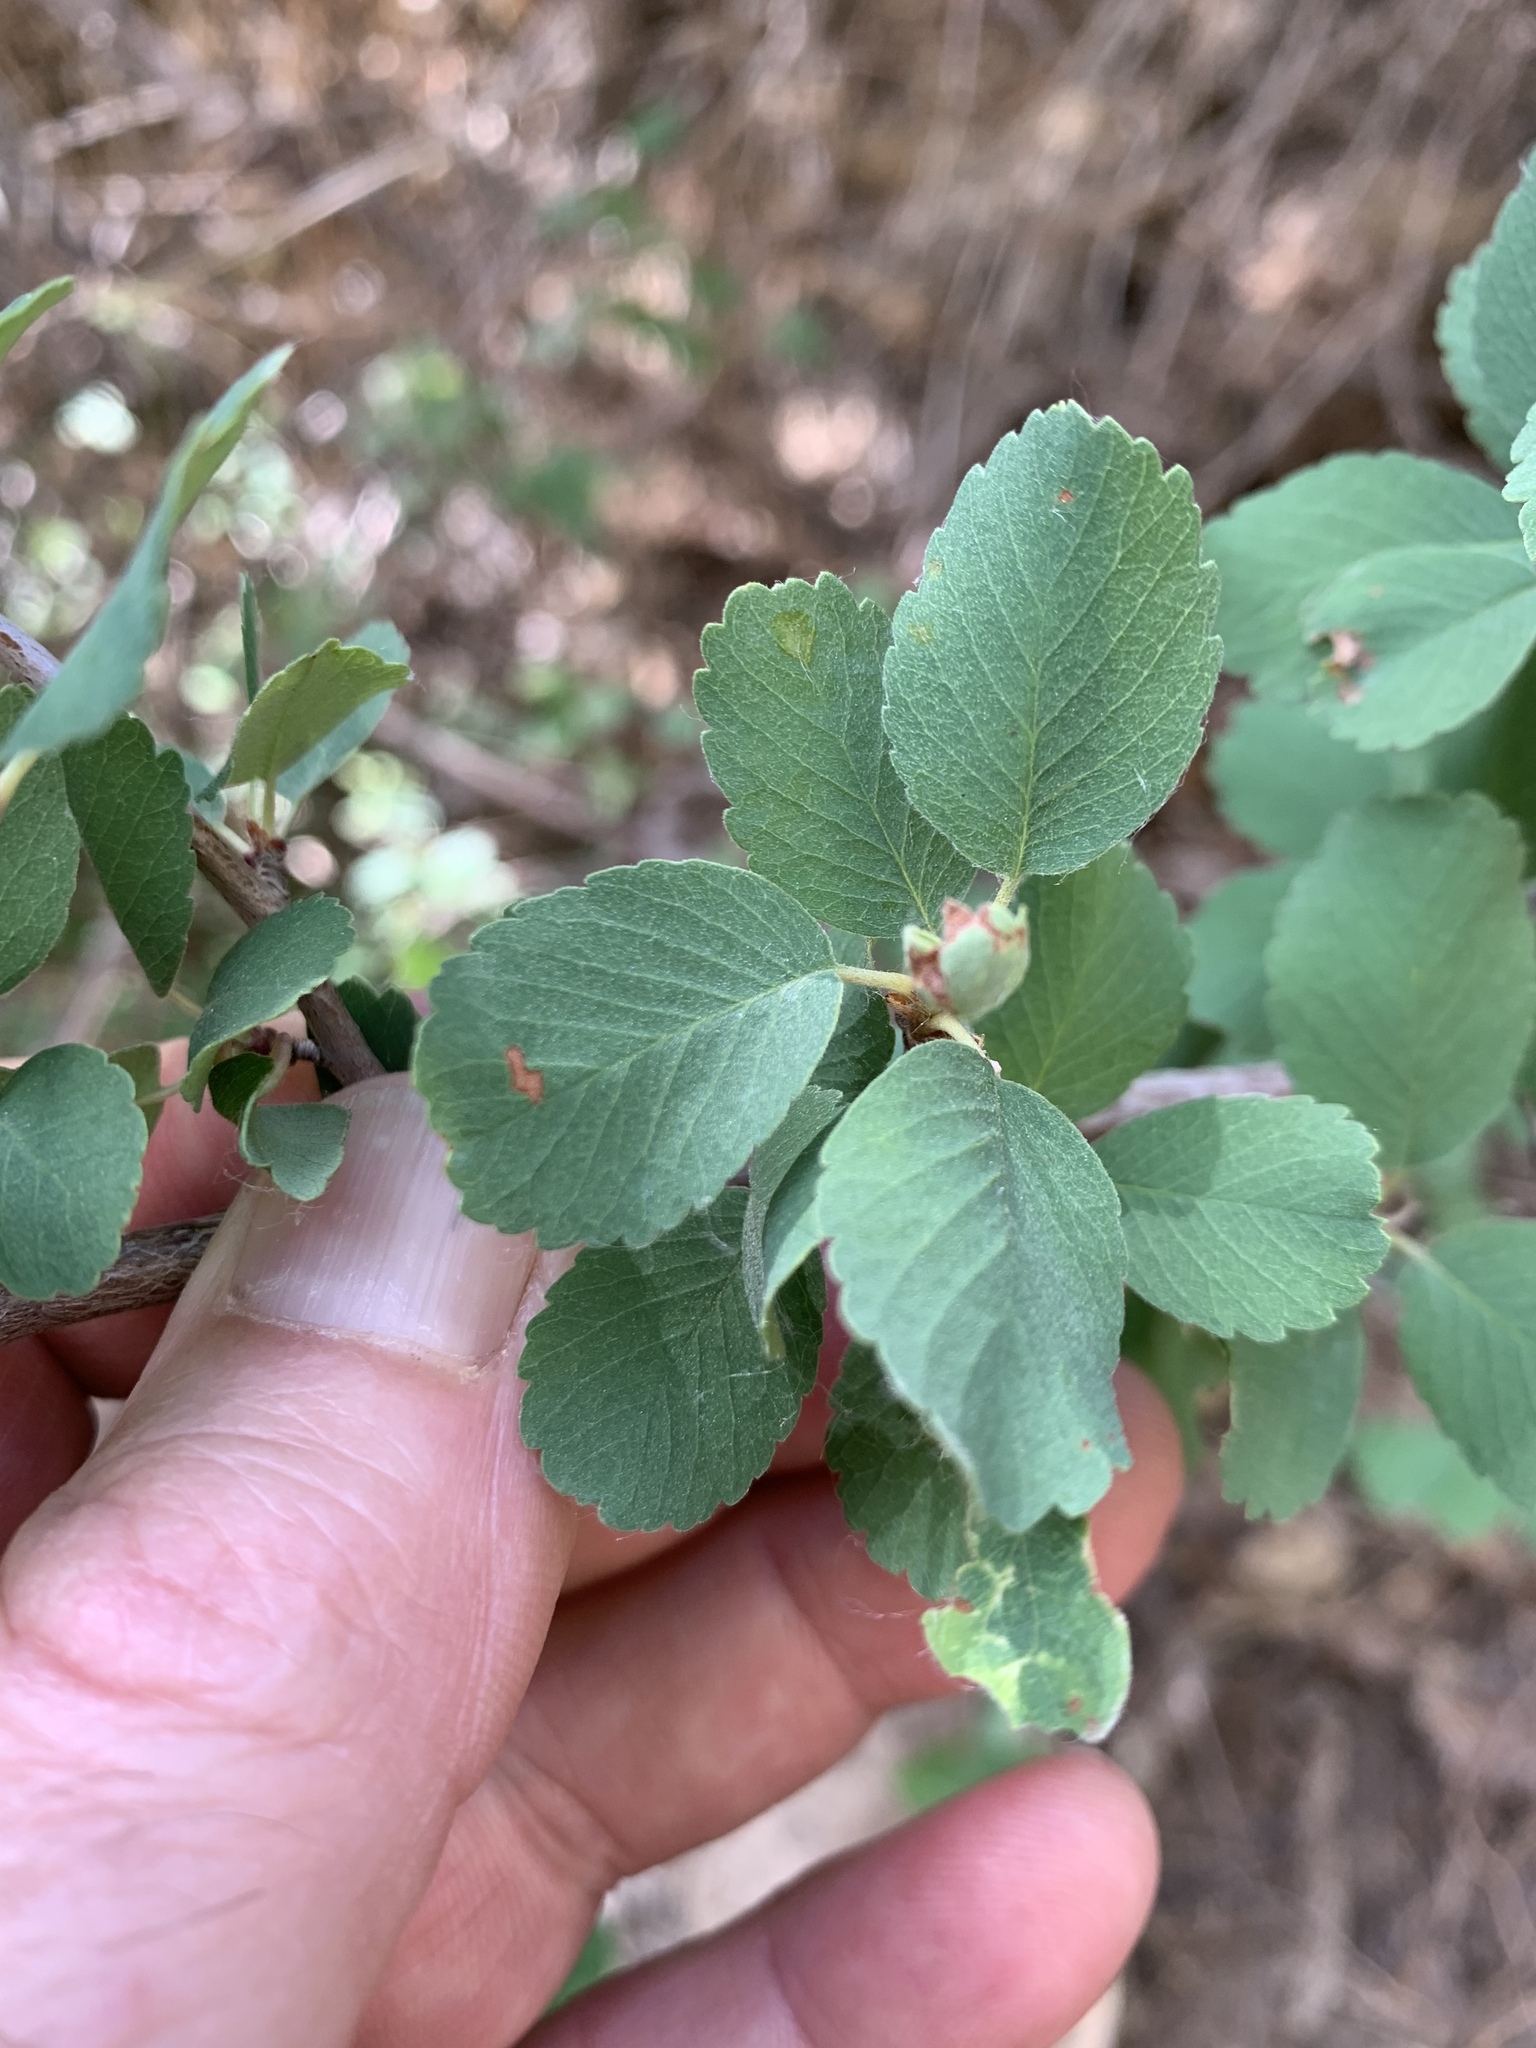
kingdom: Plantae
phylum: Tracheophyta
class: Magnoliopsida
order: Rosales
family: Rosaceae
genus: Amelanchier
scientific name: Amelanchier utahensis
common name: Utah serviceberry
